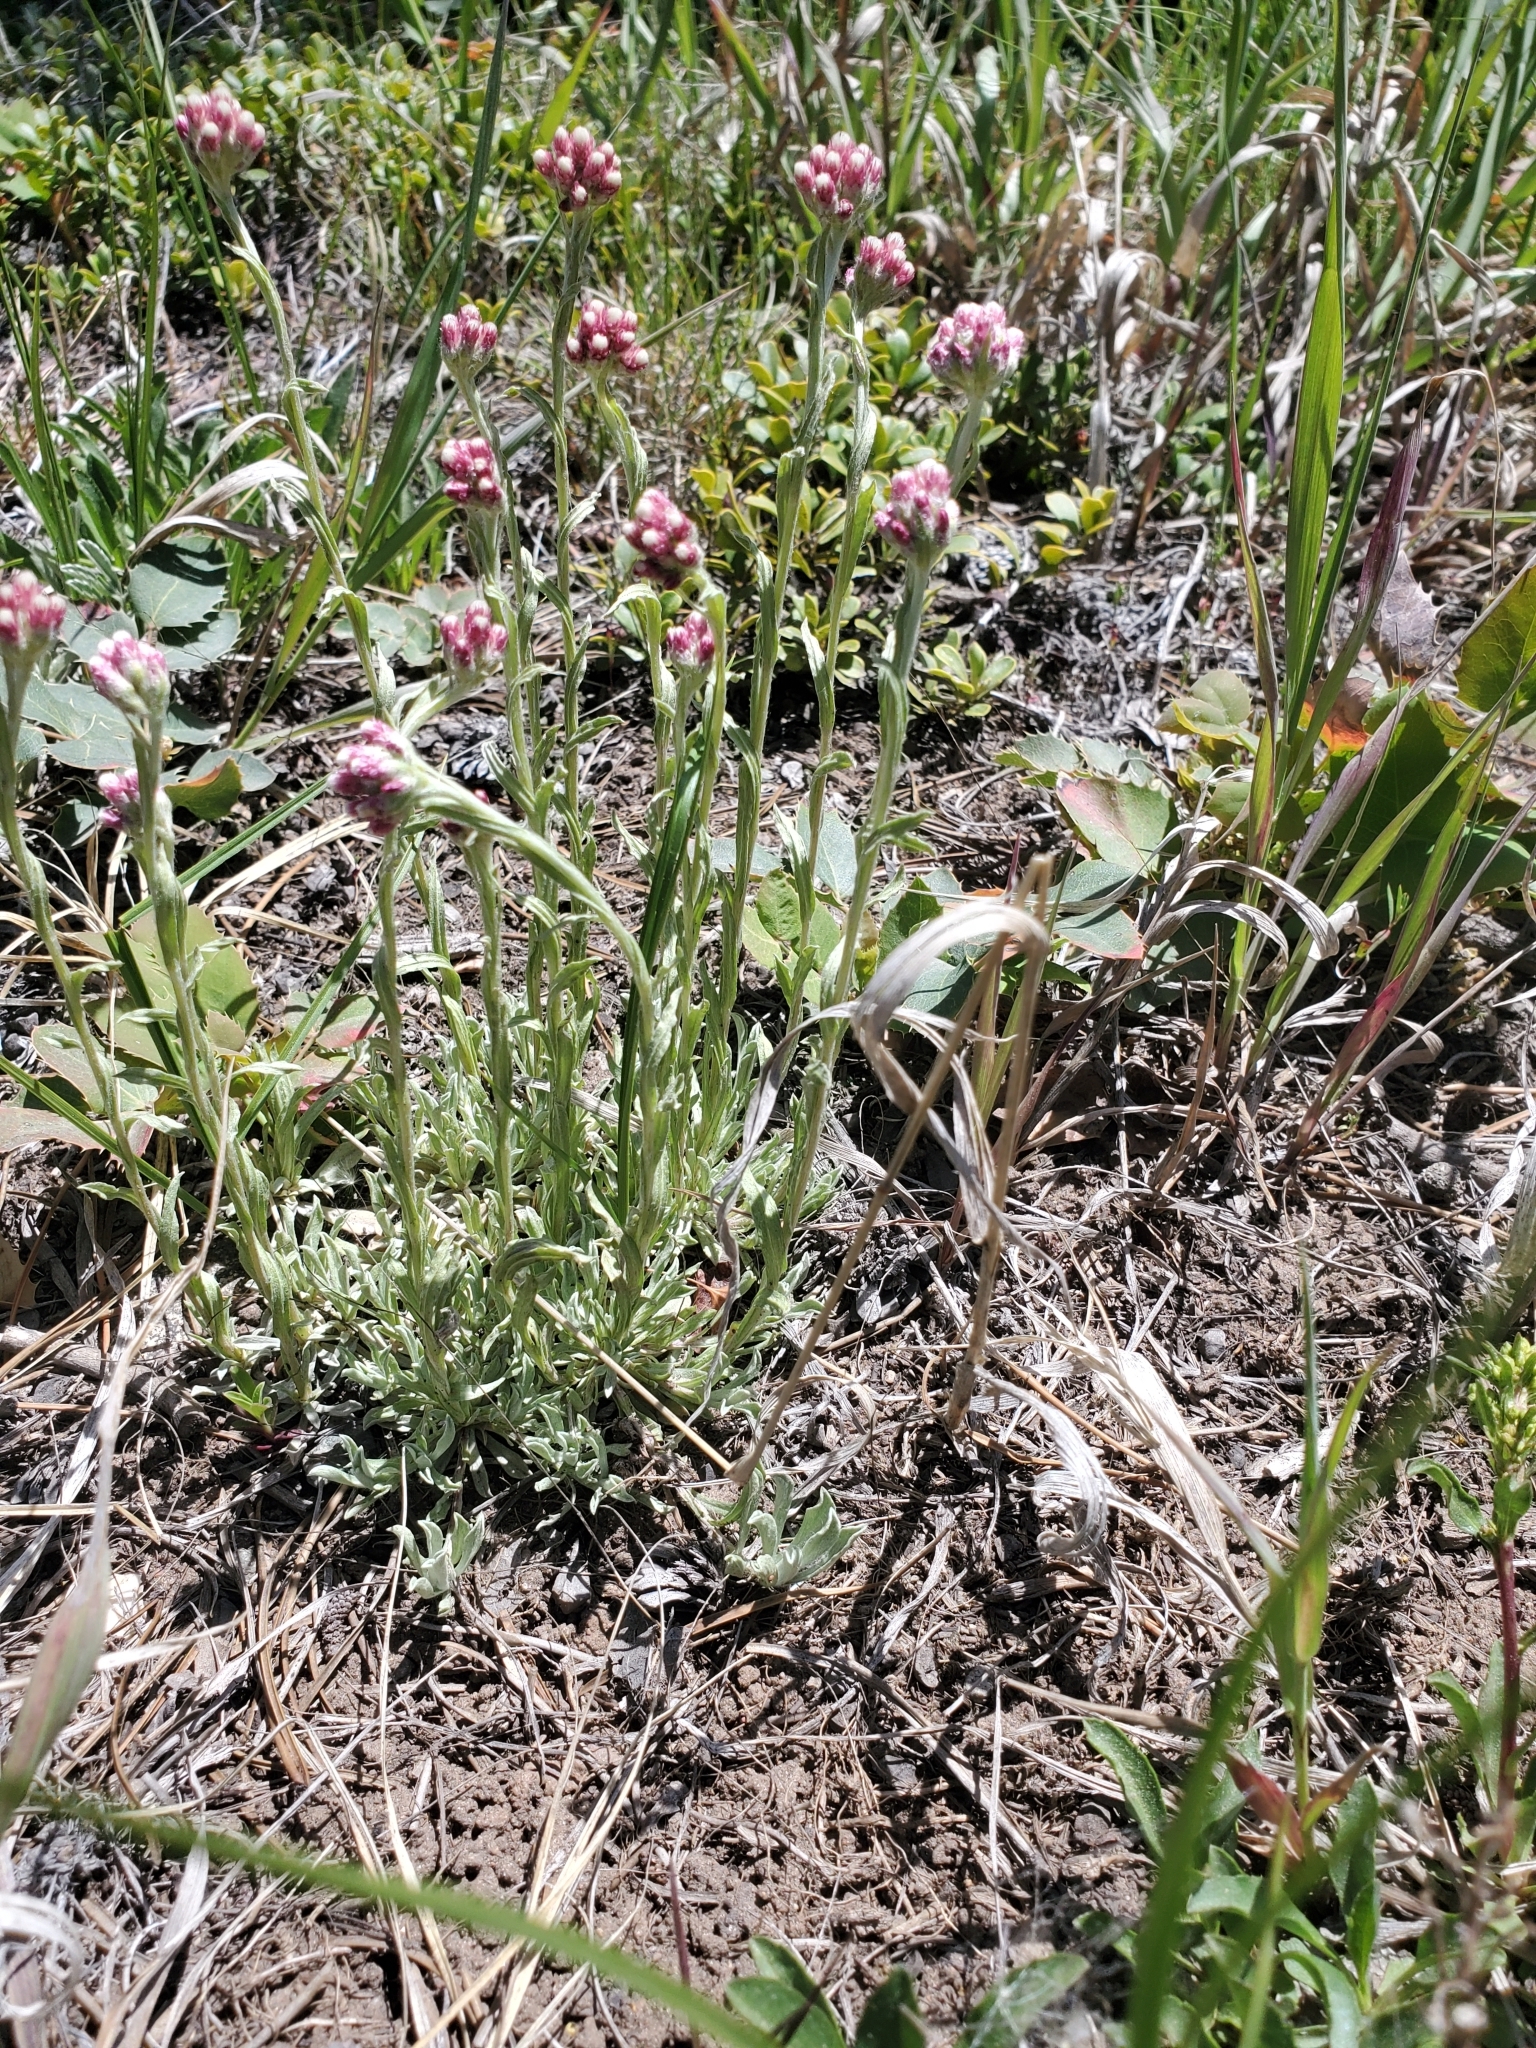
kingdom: Plantae
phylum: Tracheophyta
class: Magnoliopsida
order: Asterales
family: Asteraceae
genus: Antennaria
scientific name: Antennaria rosea
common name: Rosy pussytoes
